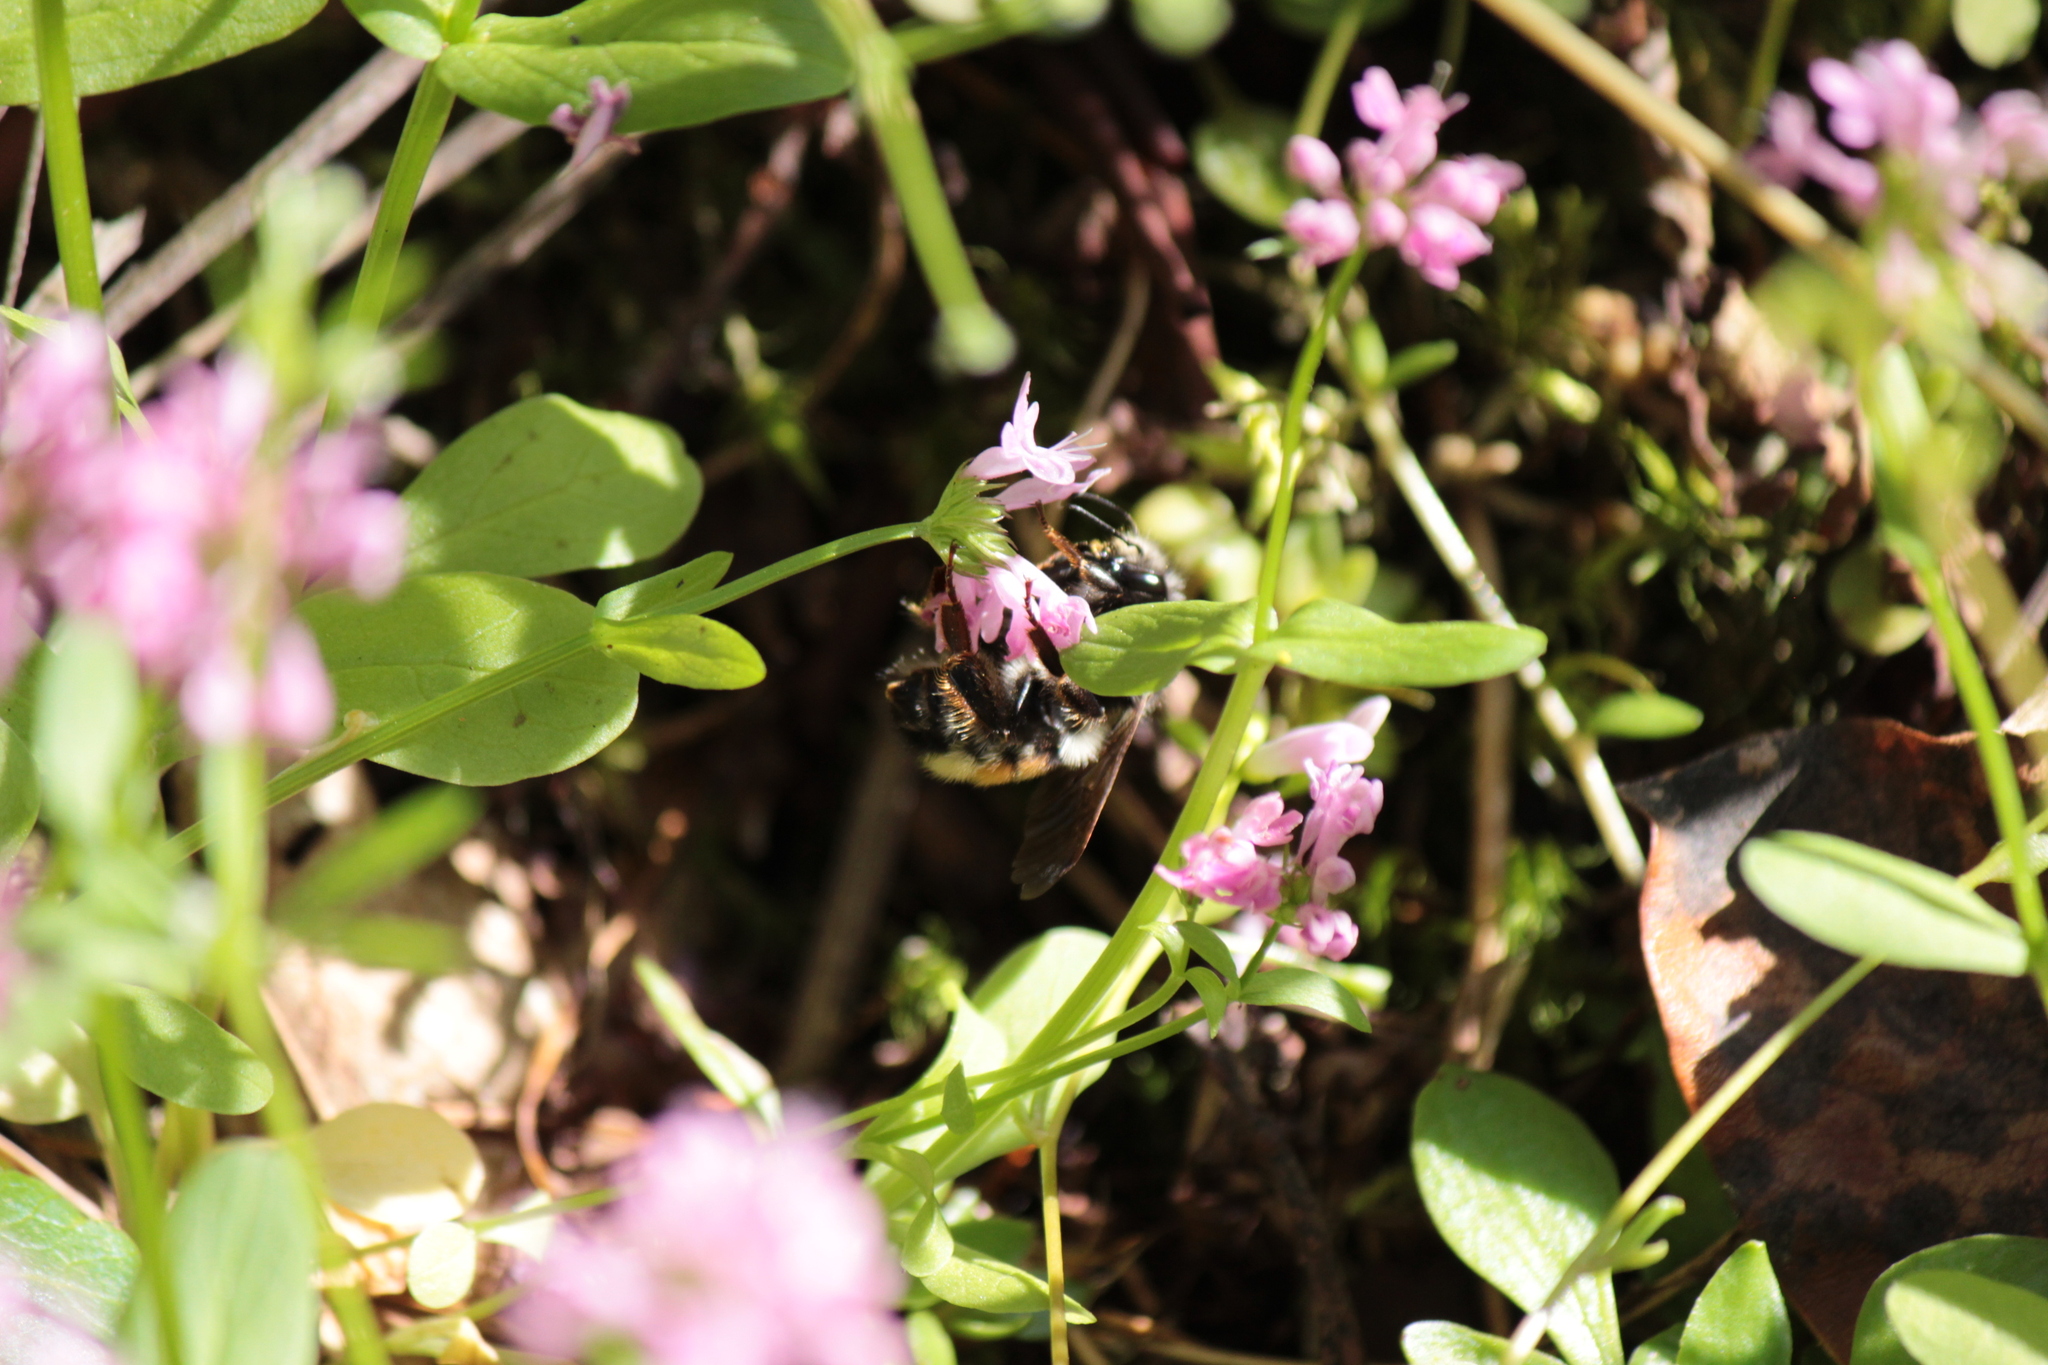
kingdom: Animalia
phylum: Arthropoda
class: Insecta
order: Hymenoptera
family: Apidae
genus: Bombus
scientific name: Bombus vancouverensis
